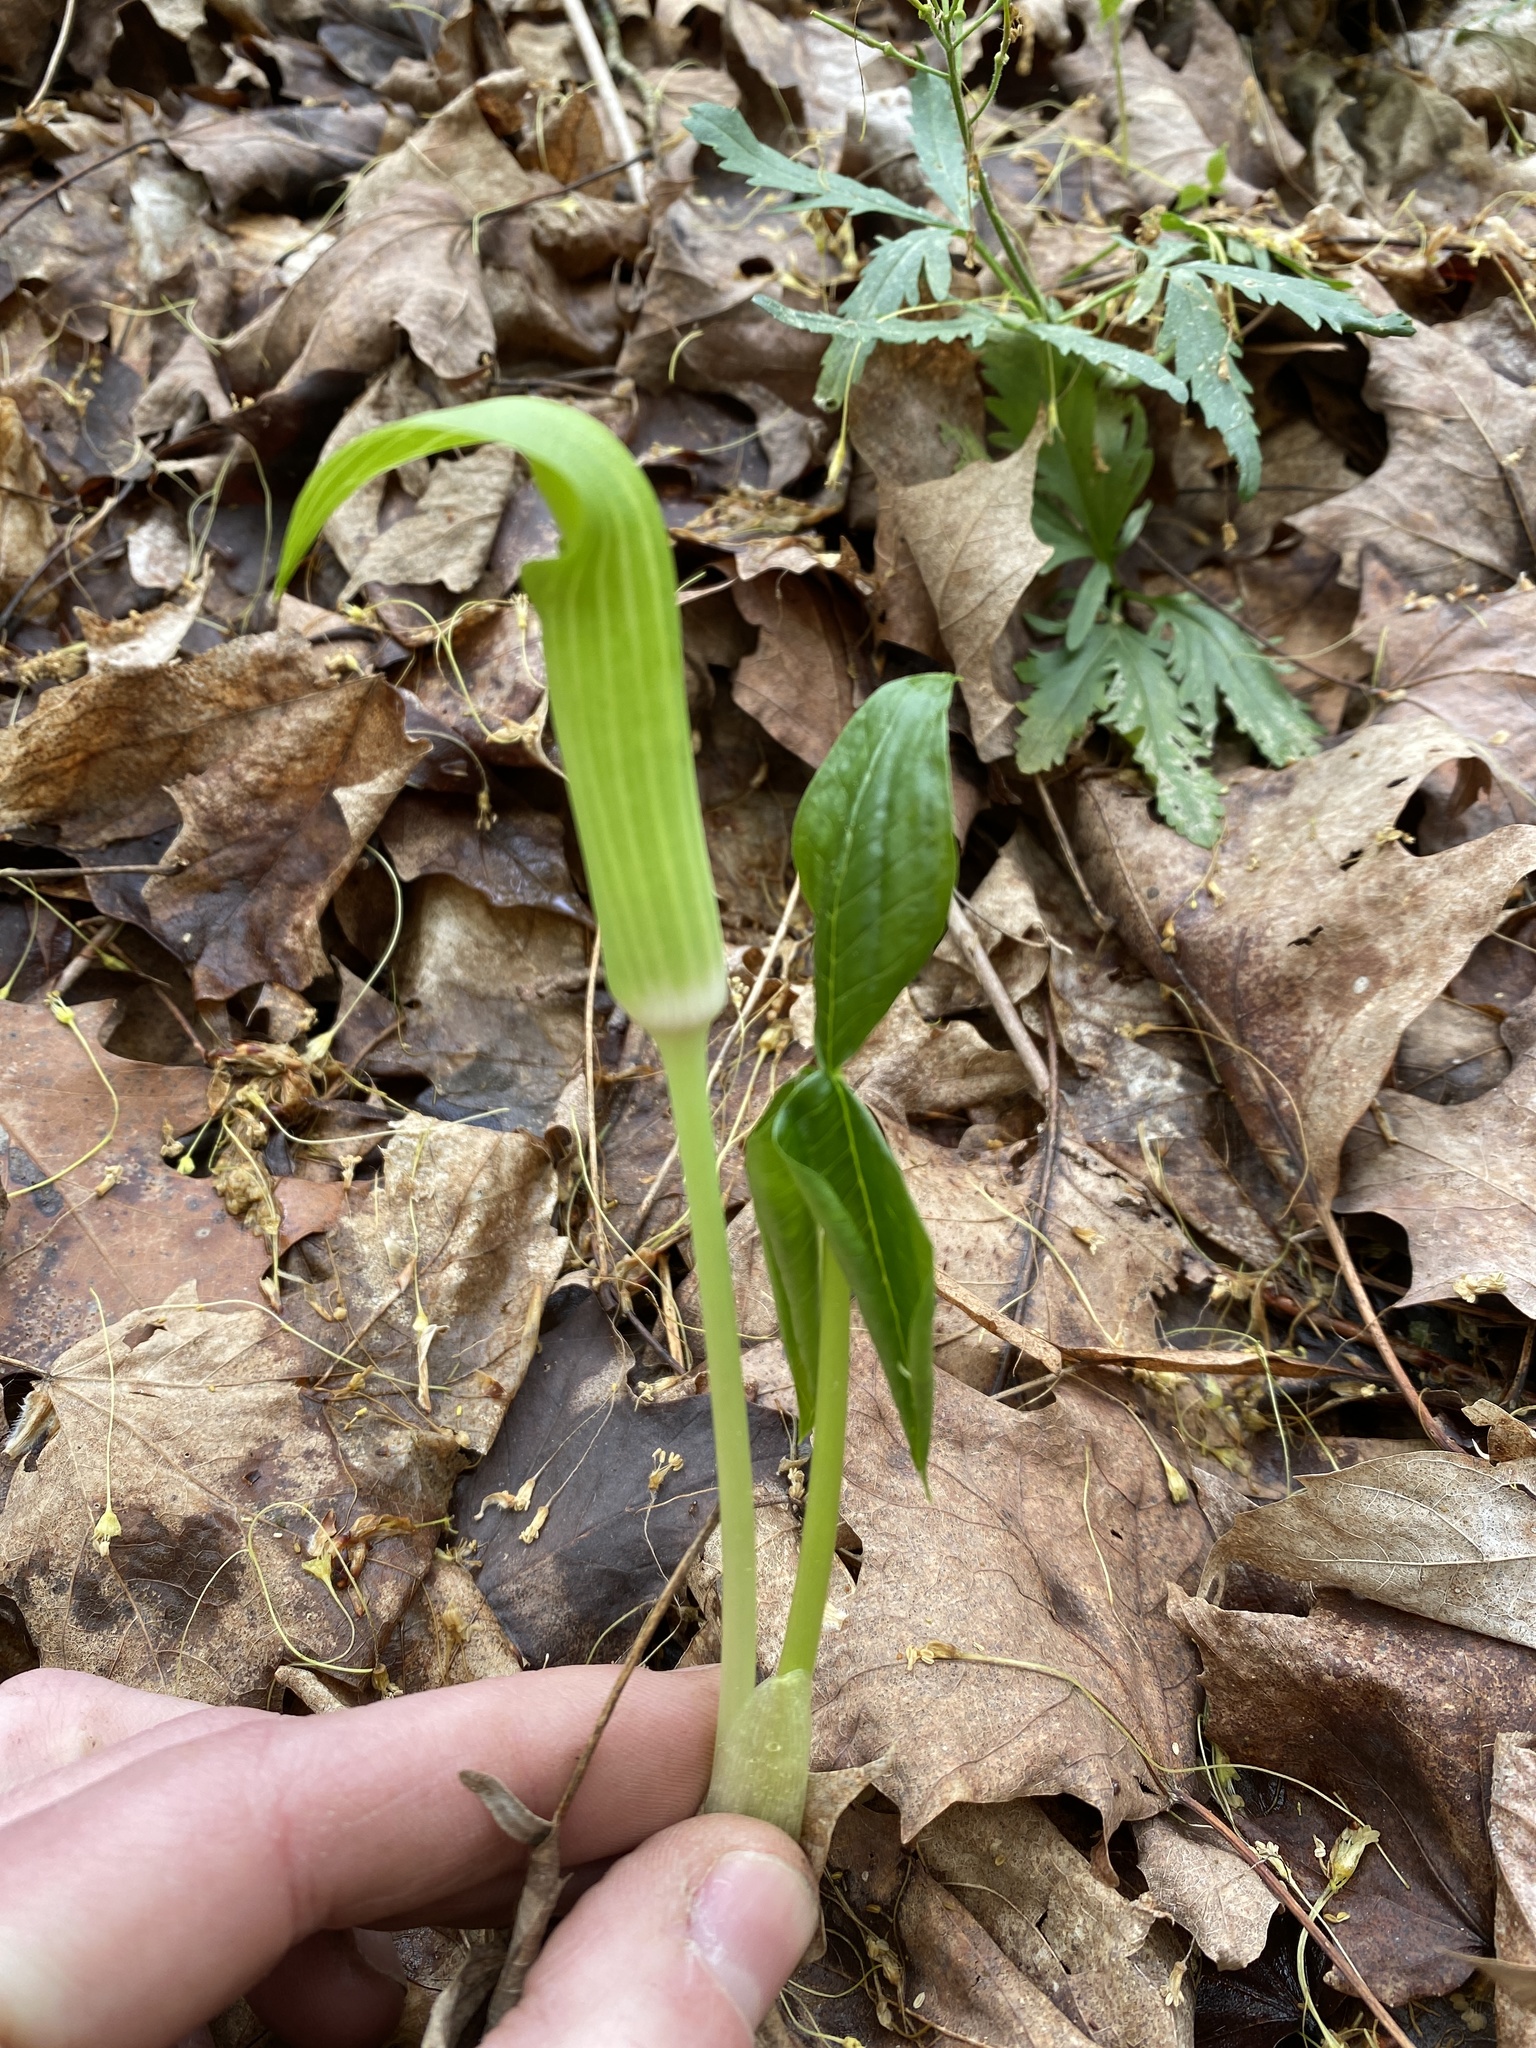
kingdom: Plantae
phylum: Tracheophyta
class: Liliopsida
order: Alismatales
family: Araceae
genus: Arisaema
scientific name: Arisaema triphyllum
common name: Jack-in-the-pulpit
